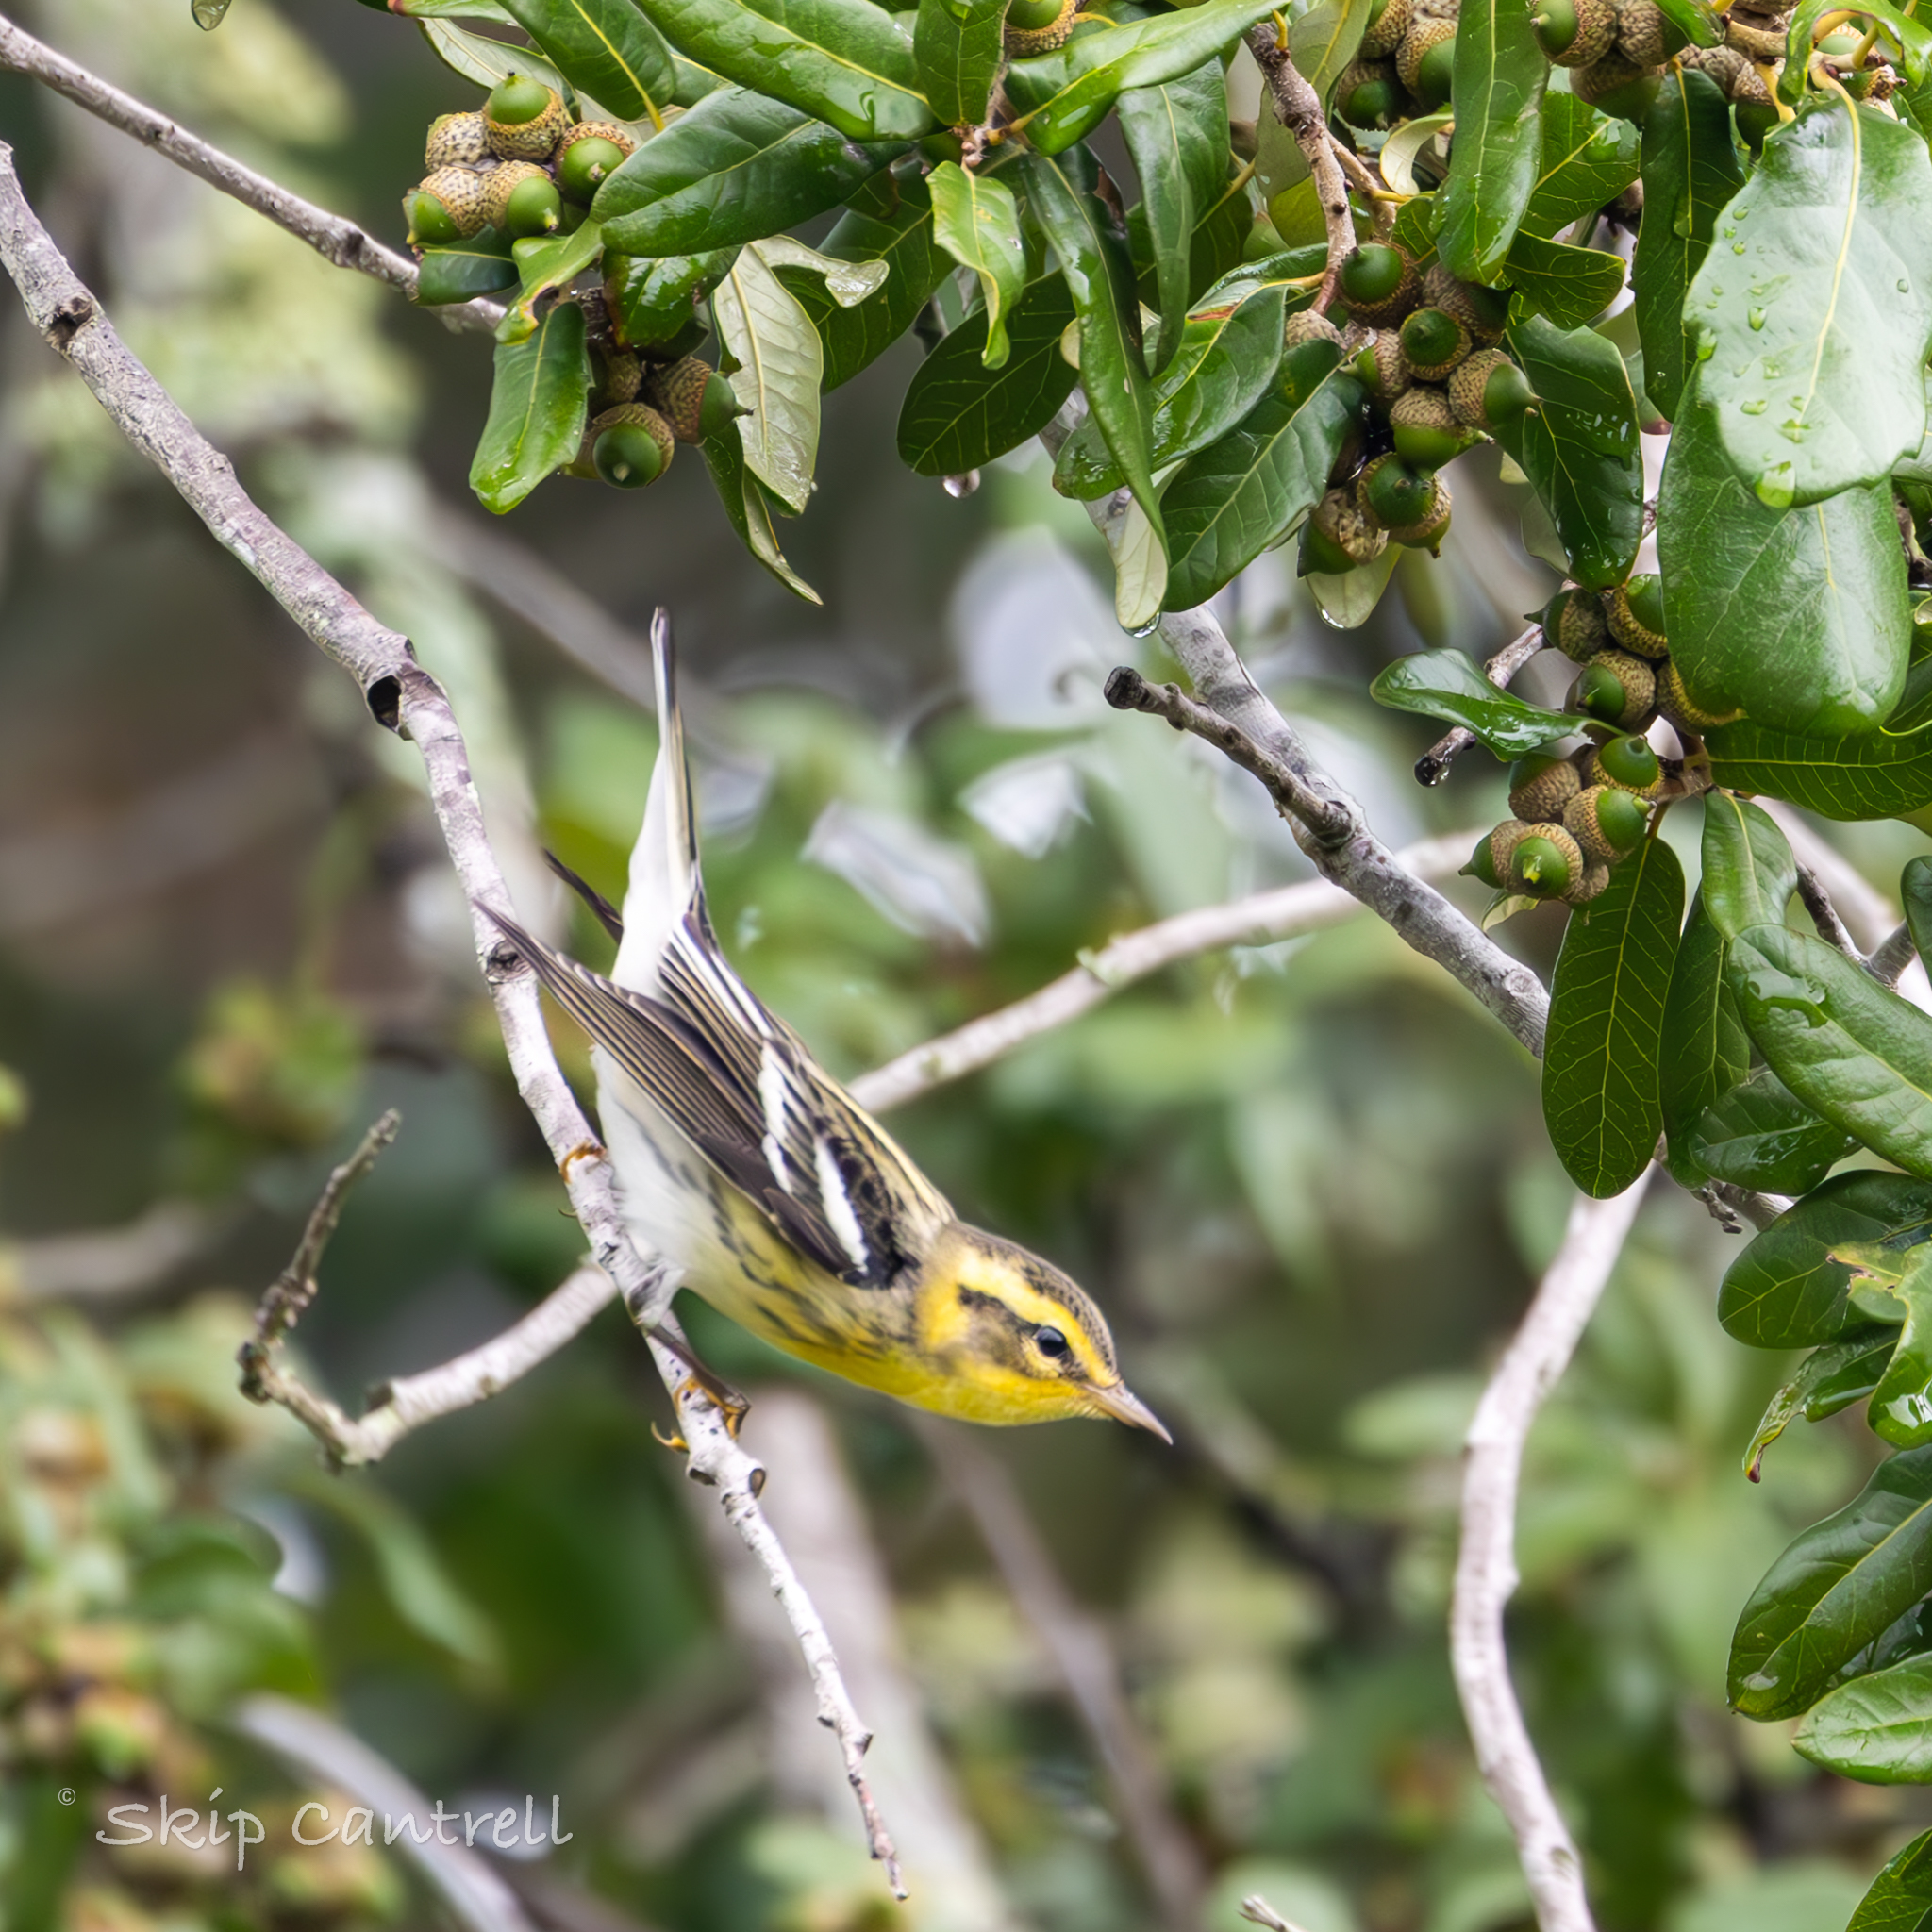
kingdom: Animalia
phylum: Chordata
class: Aves
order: Passeriformes
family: Parulidae
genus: Setophaga
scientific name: Setophaga fusca
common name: Blackburnian warbler
